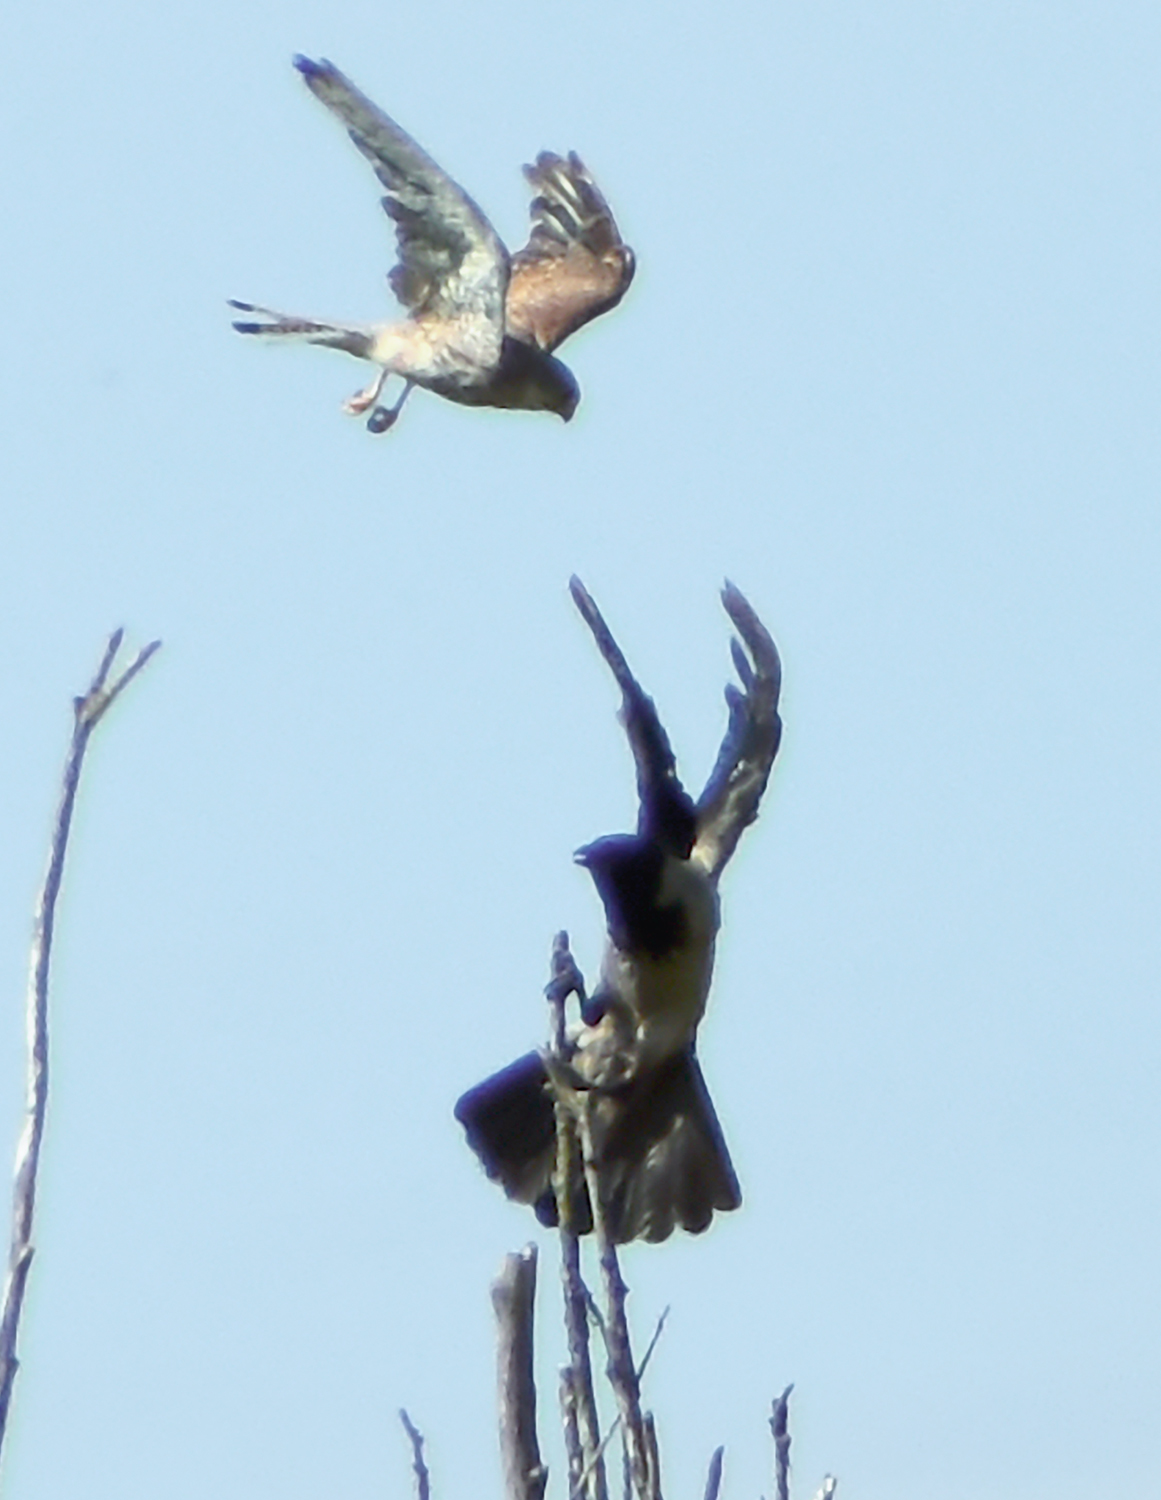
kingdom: Animalia
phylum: Chordata
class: Aves
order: Passeriformes
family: Corvidae
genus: Corvus
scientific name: Corvus cornix
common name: Hooded crow
